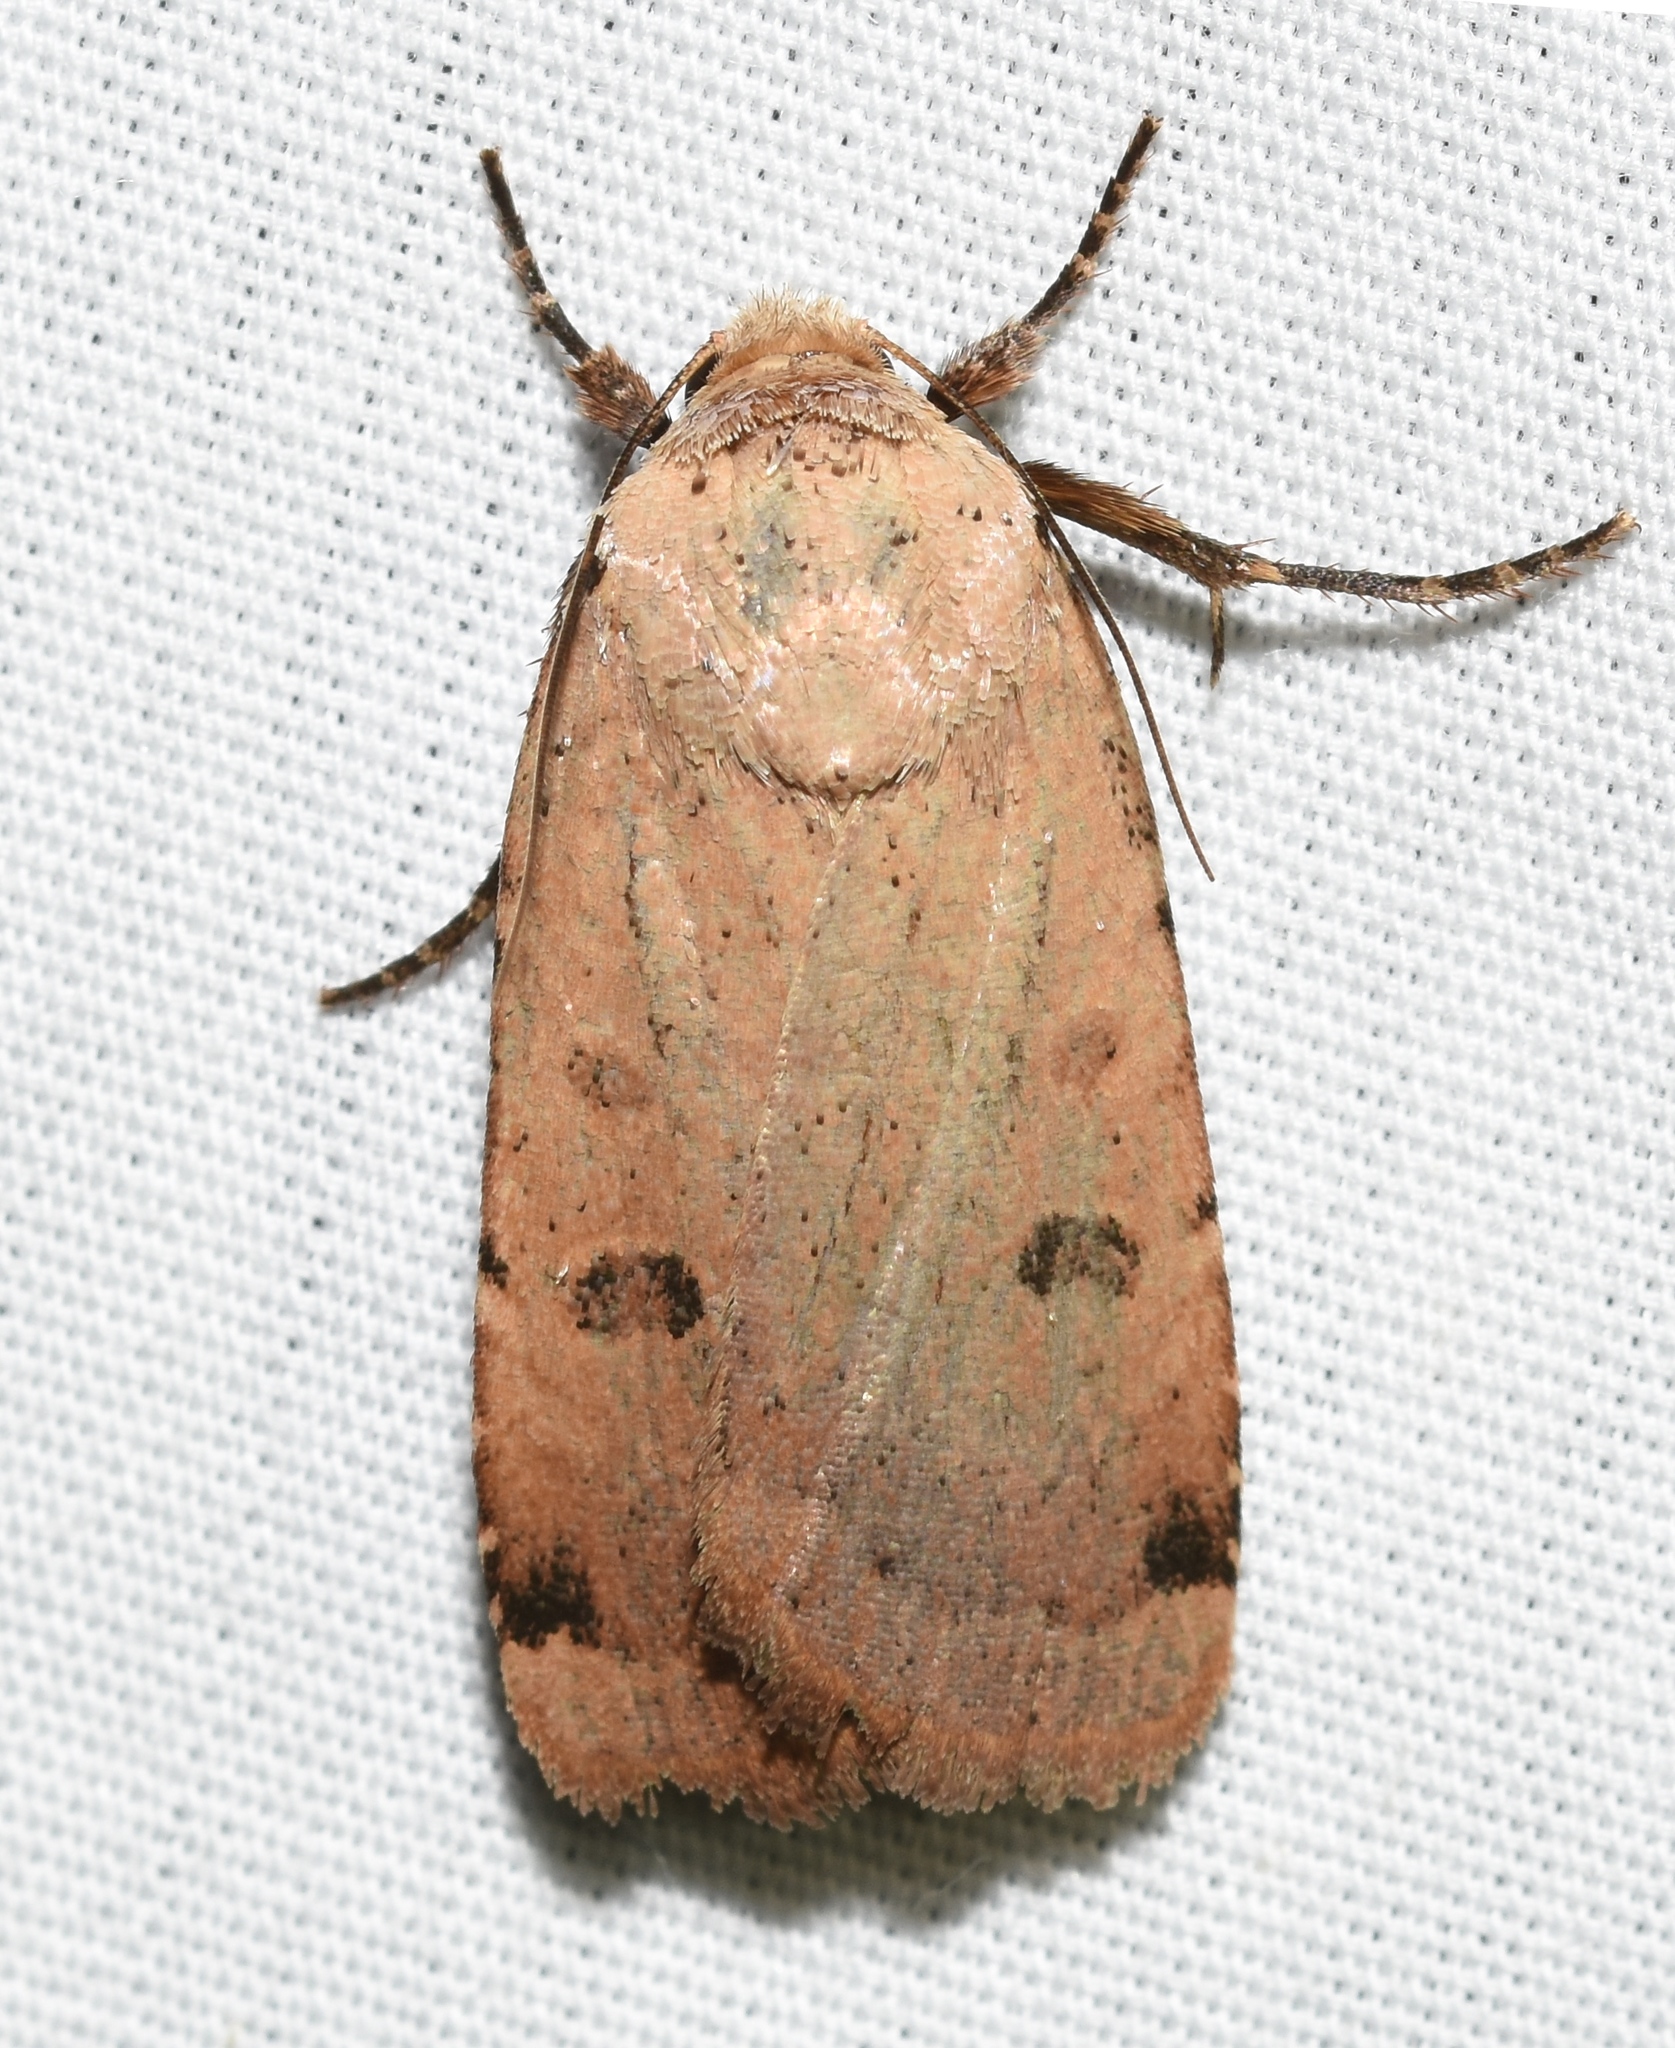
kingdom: Animalia
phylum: Arthropoda
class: Insecta
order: Lepidoptera
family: Noctuidae
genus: Abagrotis
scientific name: Abagrotis cupida
